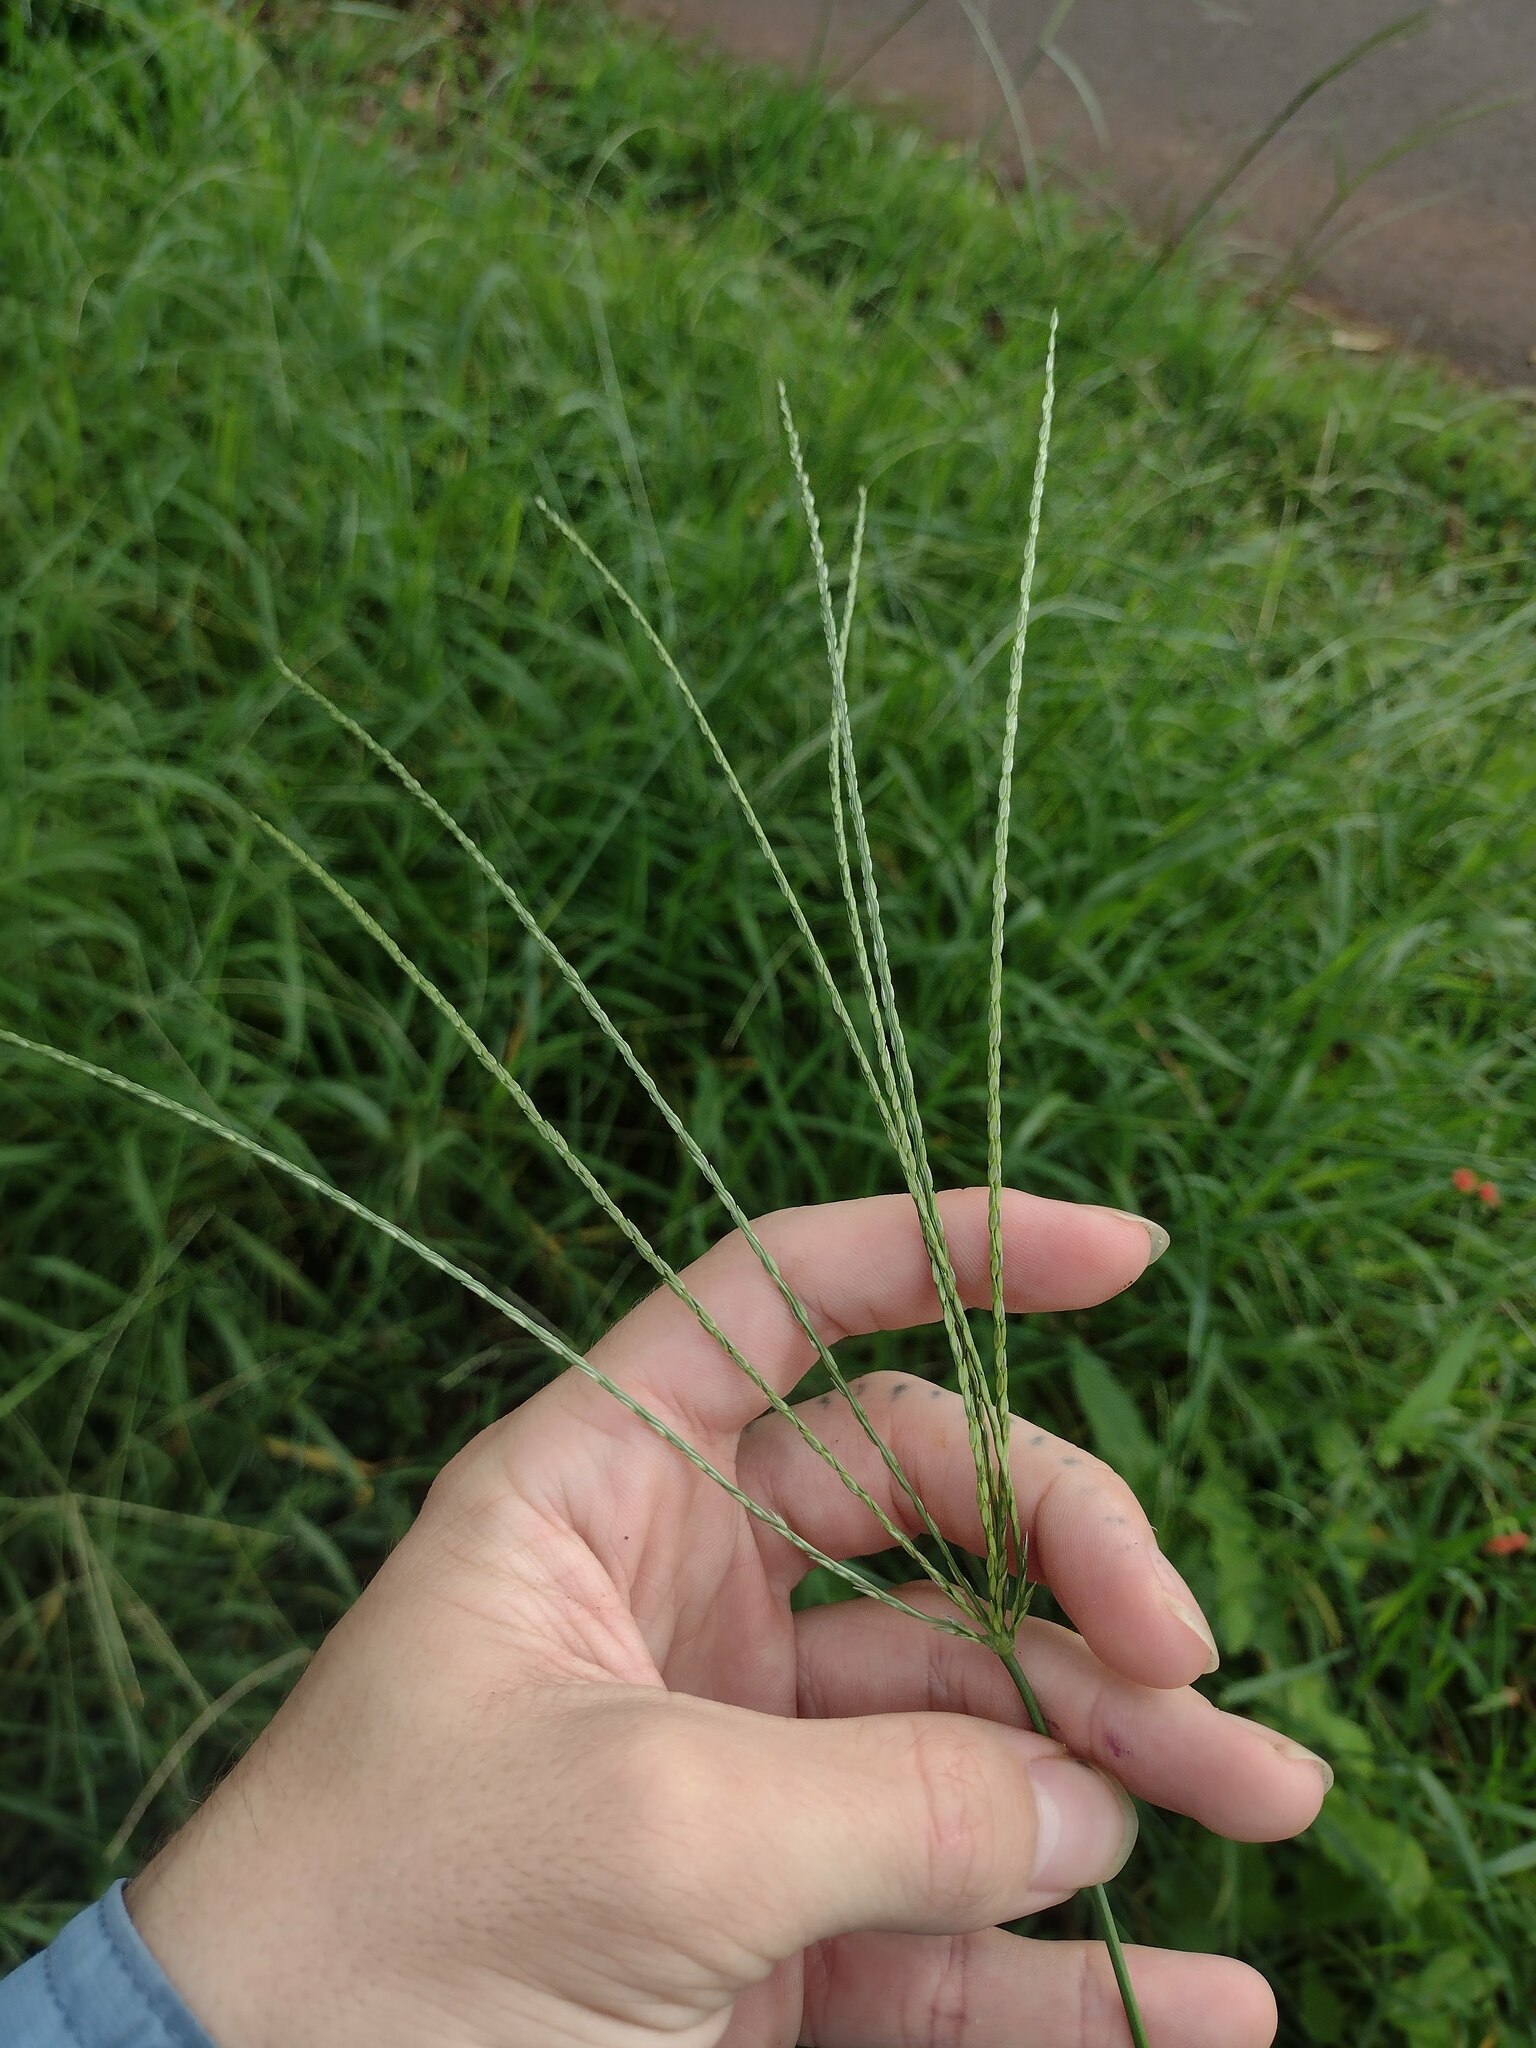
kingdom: Plantae
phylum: Tracheophyta
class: Liliopsida
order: Poales
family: Poaceae
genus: Digitaria
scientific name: Digitaria eriantha
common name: Digitgrass
